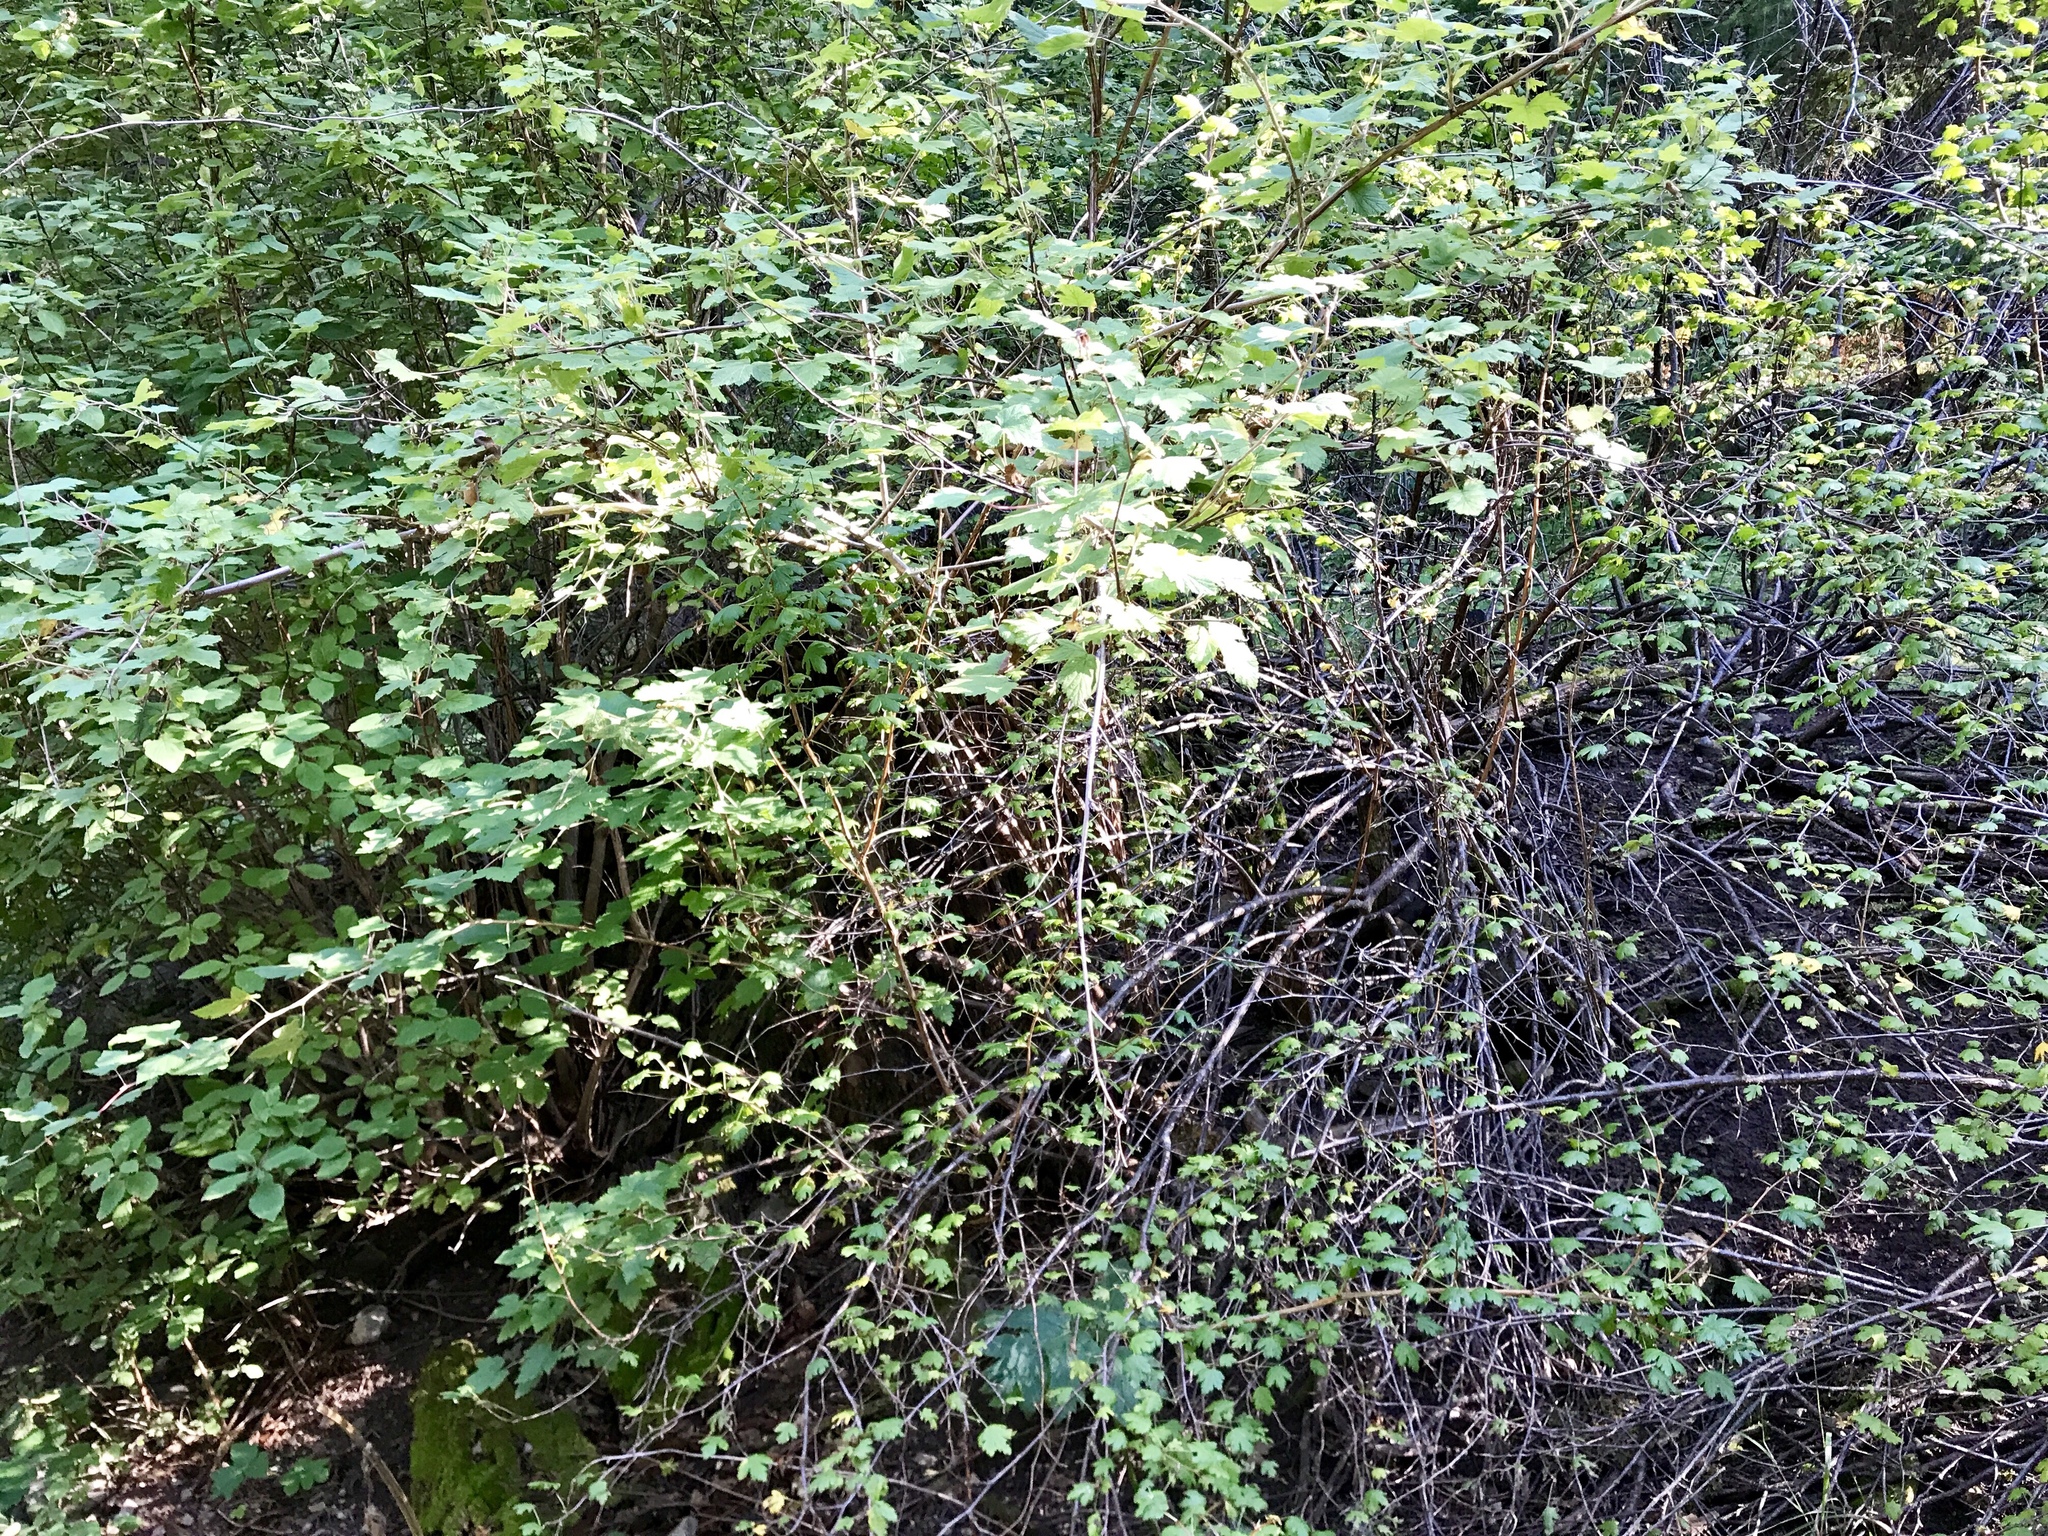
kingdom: Plantae
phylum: Tracheophyta
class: Magnoliopsida
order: Rosales
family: Rosaceae
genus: Rubus
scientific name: Rubus neomexicanus
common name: New mexico raspberry
